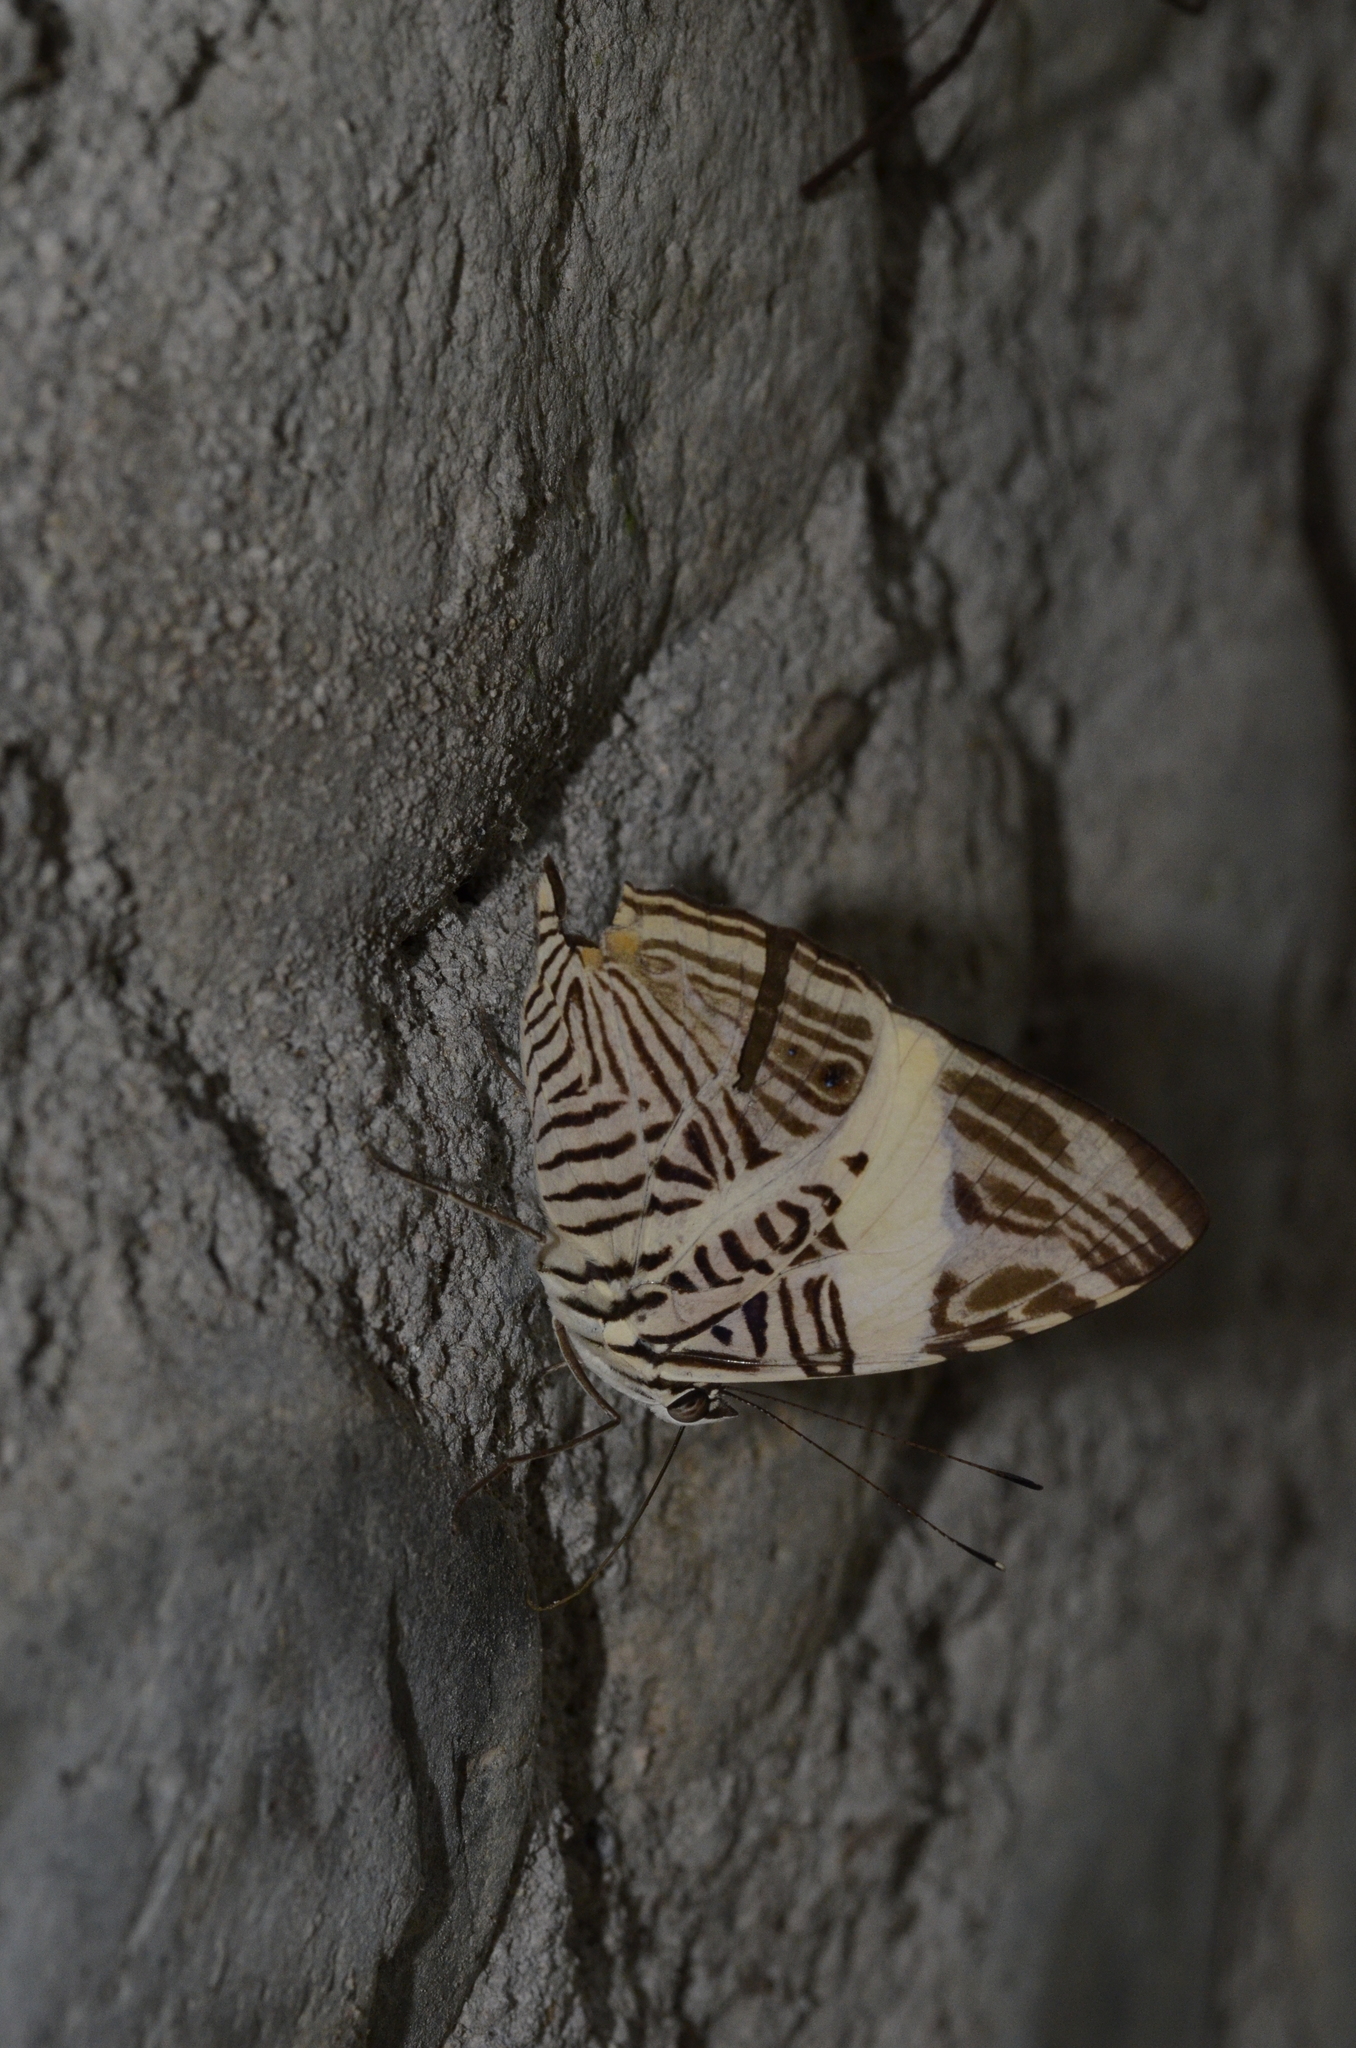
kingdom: Animalia
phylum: Arthropoda
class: Insecta
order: Lepidoptera
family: Nymphalidae
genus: Colobura
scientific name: Colobura dirce
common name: Dirce beauty
